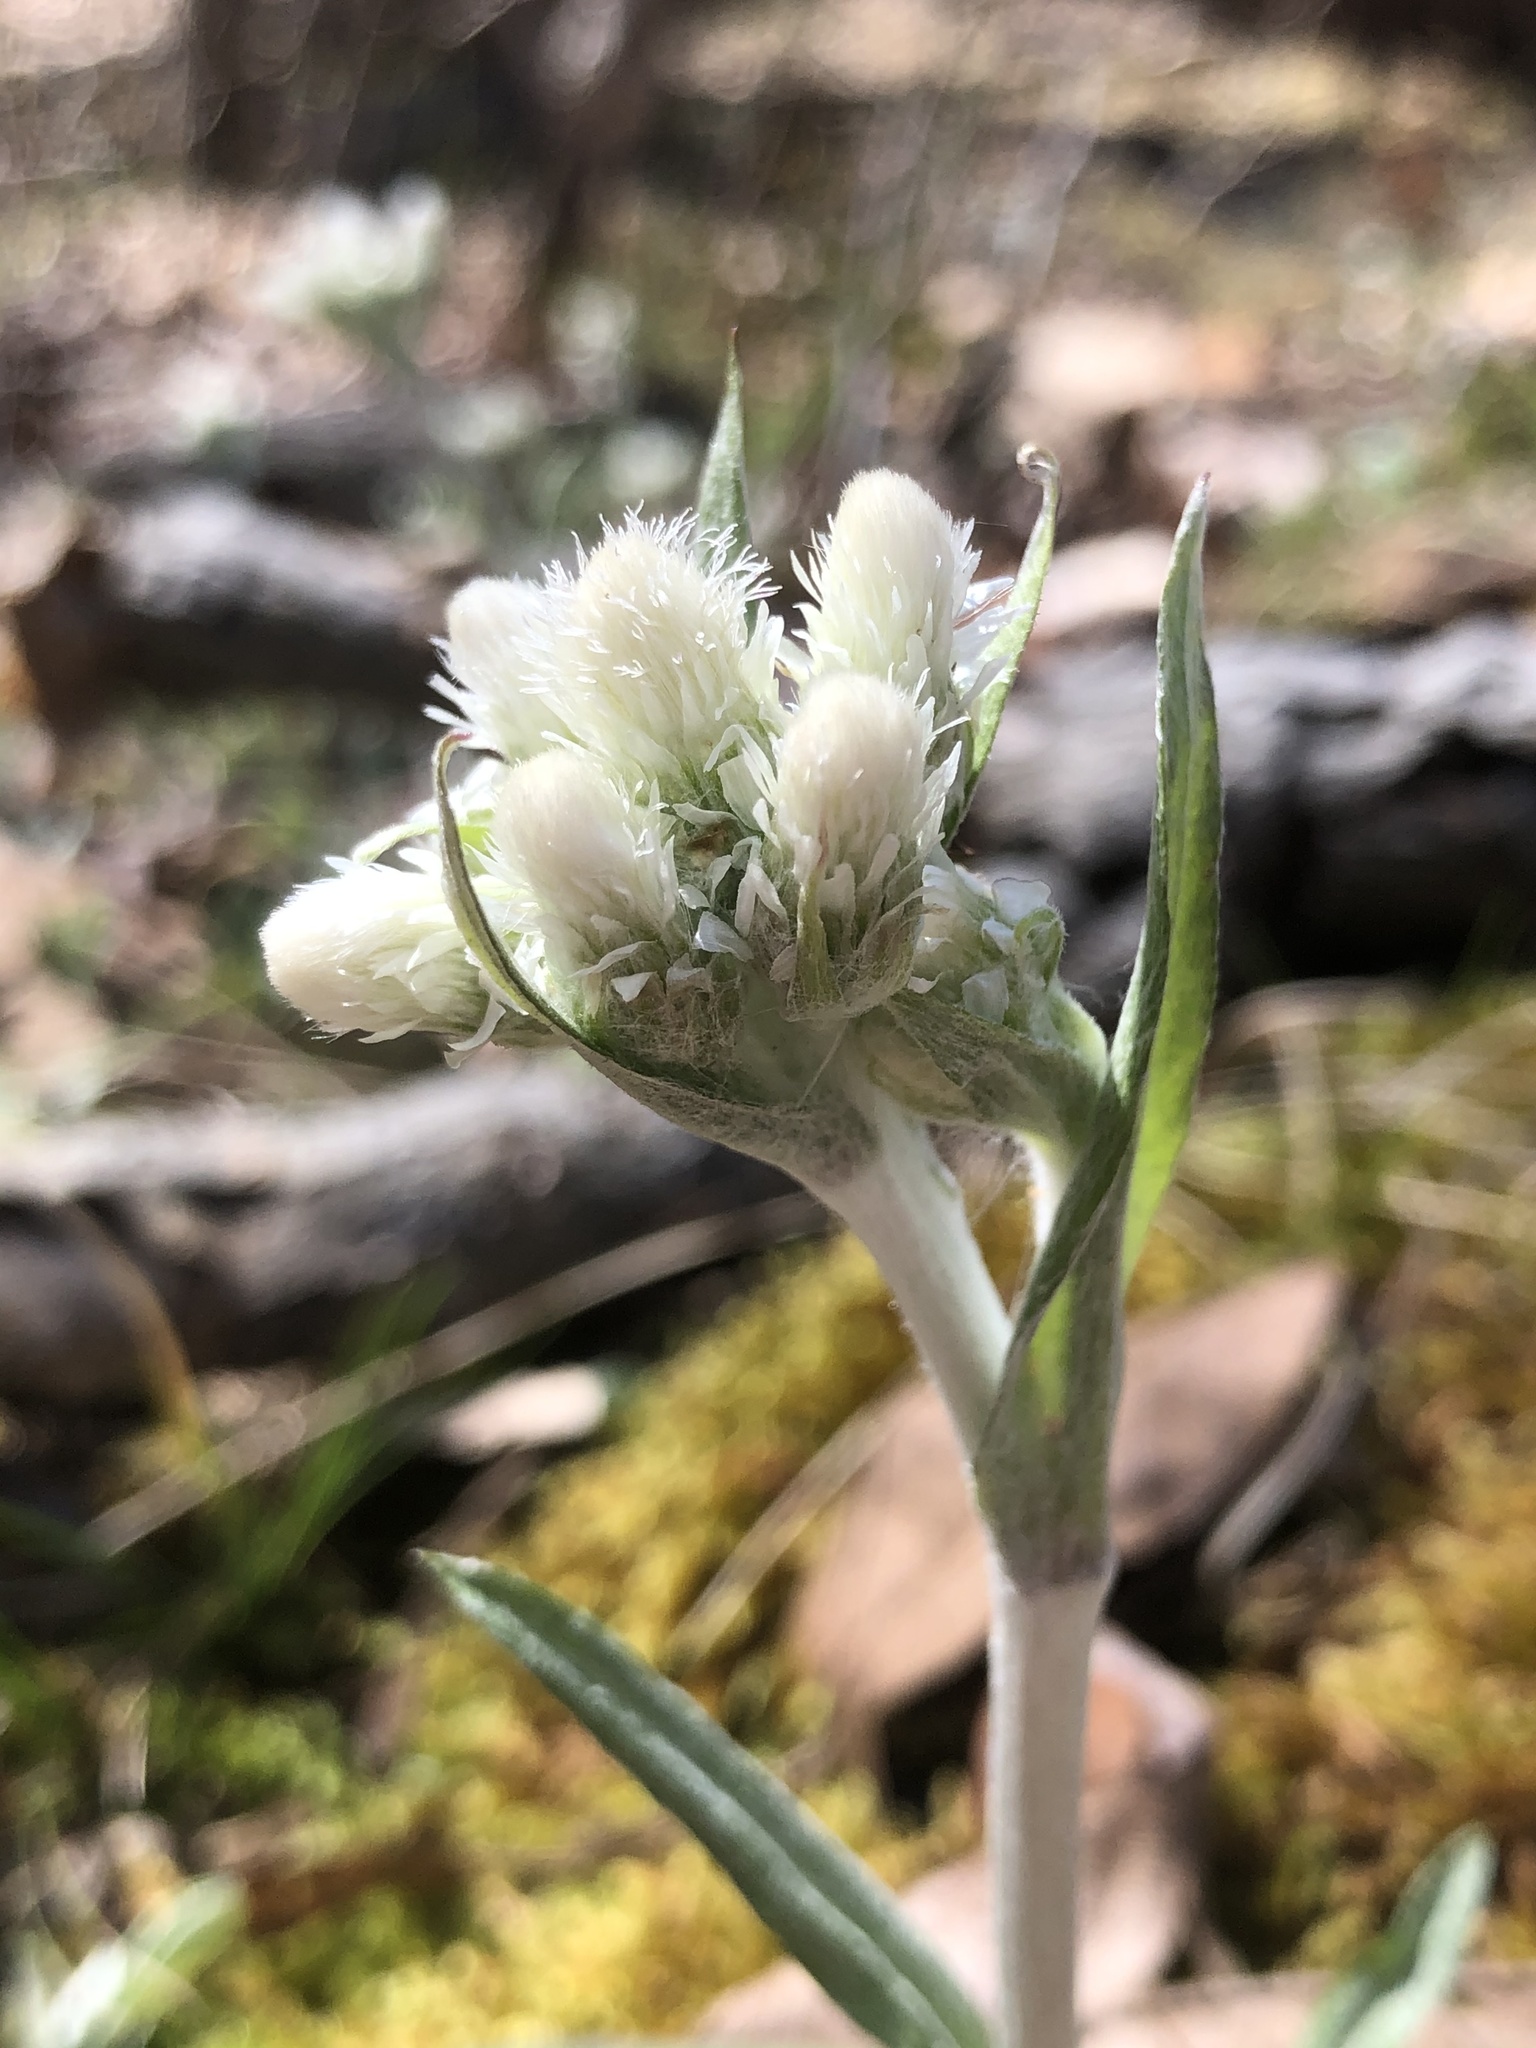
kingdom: Plantae
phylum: Tracheophyta
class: Magnoliopsida
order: Asterales
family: Asteraceae
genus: Antennaria
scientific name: Antennaria parlinii
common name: Parlin's pussytoes
